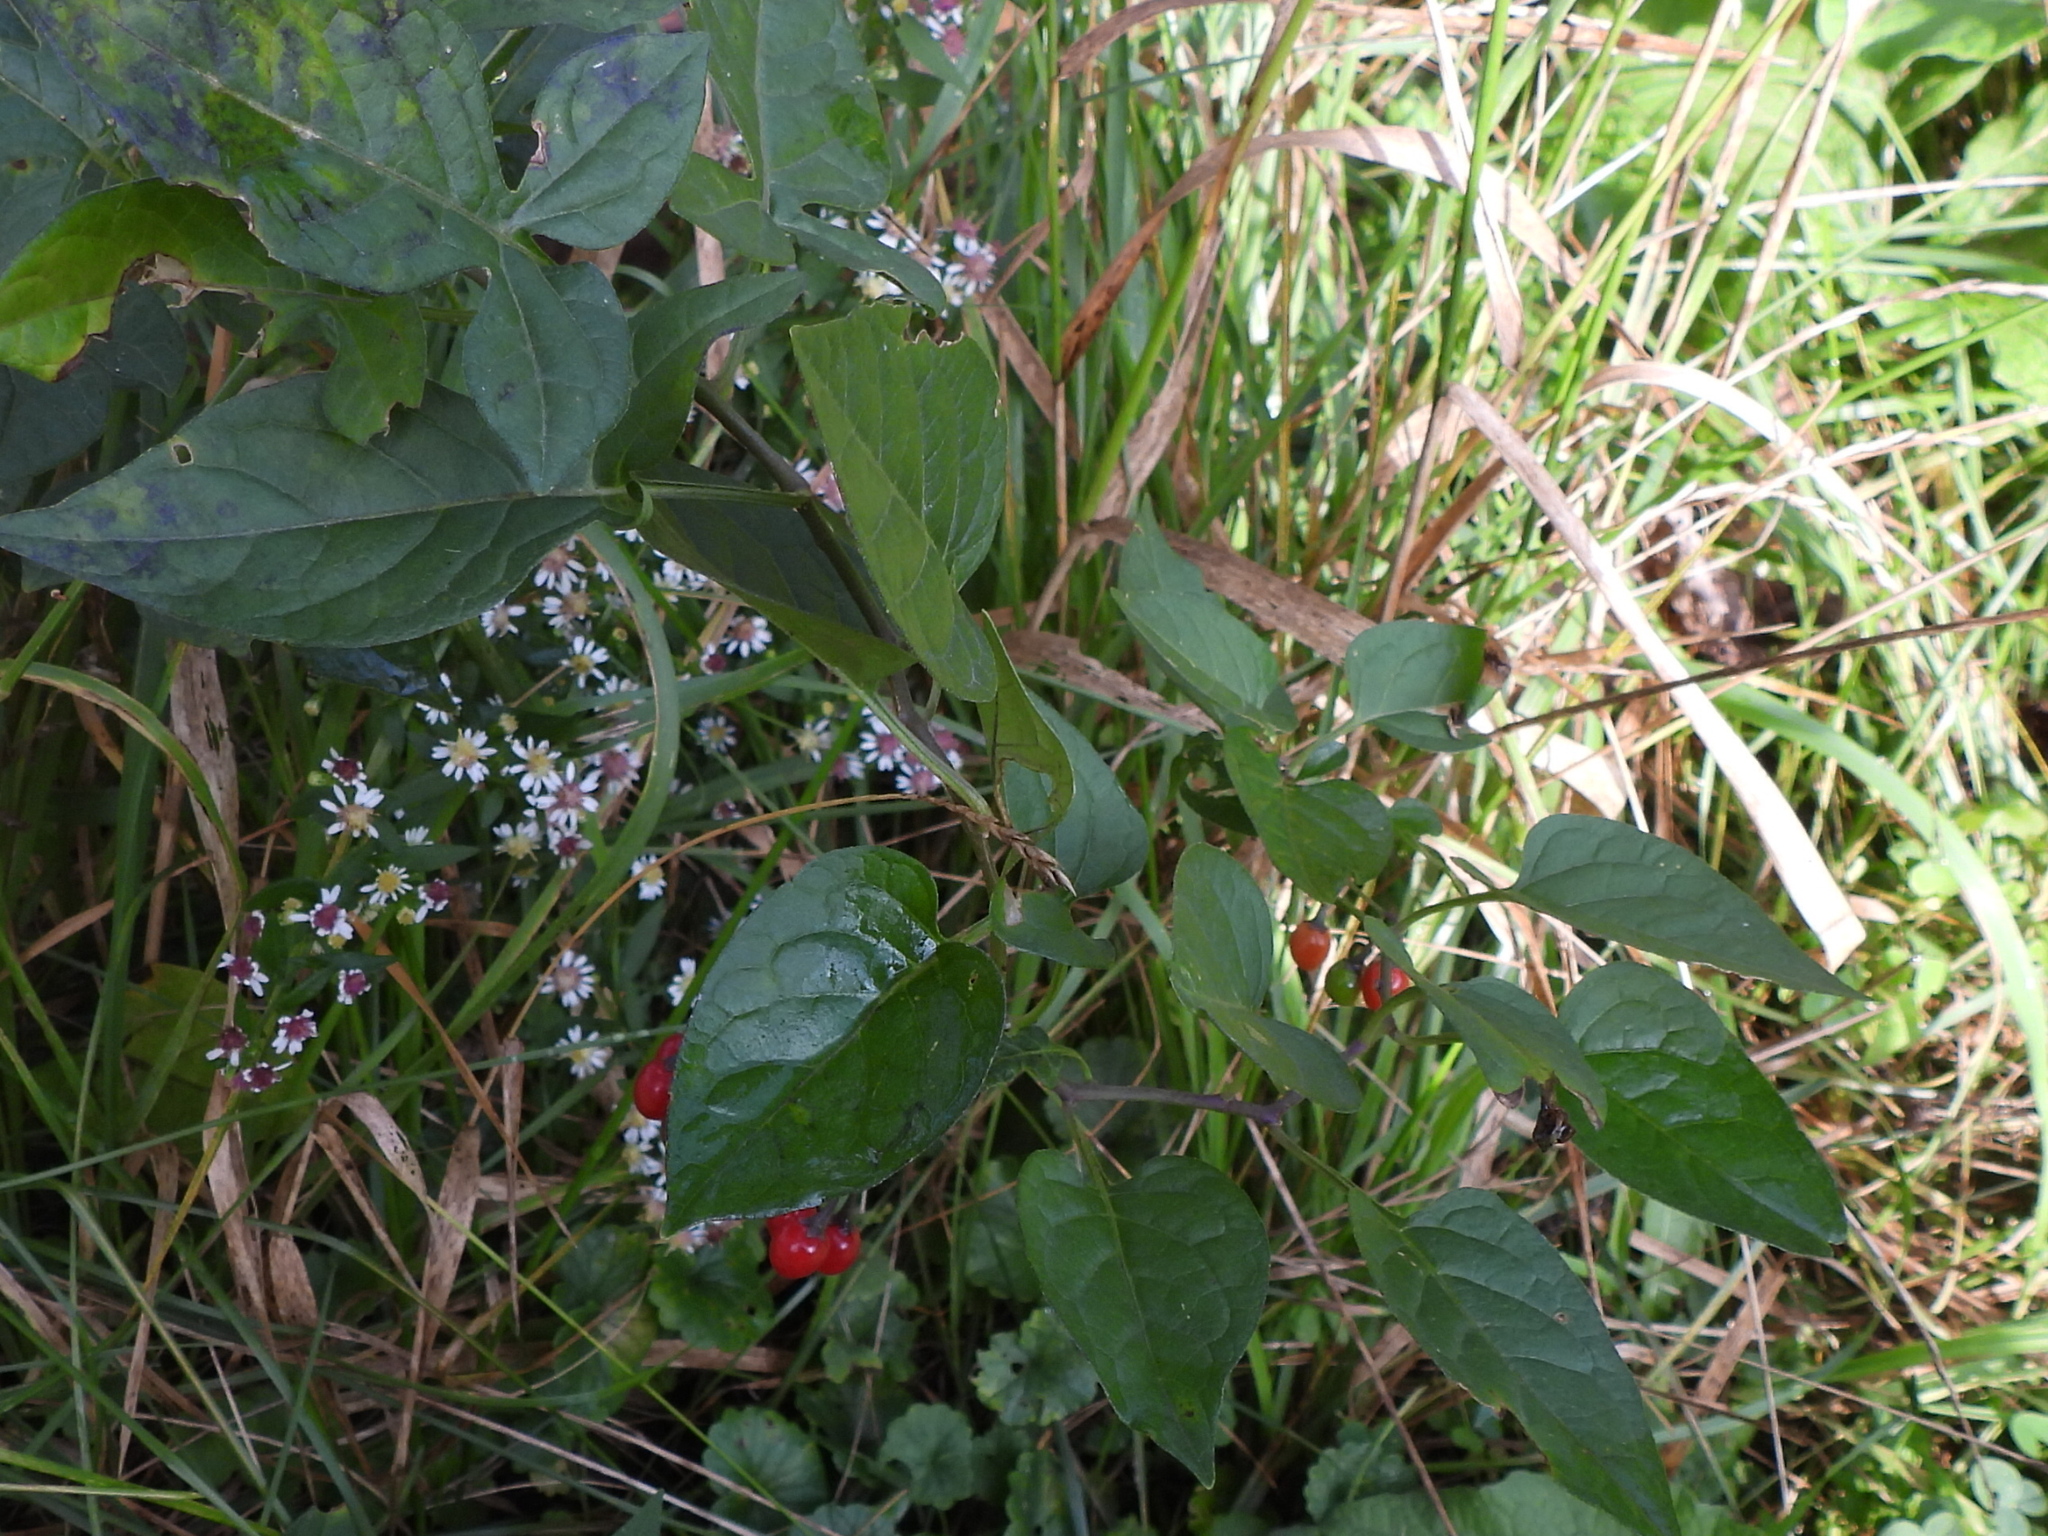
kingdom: Plantae
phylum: Tracheophyta
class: Magnoliopsida
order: Solanales
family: Solanaceae
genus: Solanum
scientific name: Solanum dulcamara
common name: Climbing nightshade
